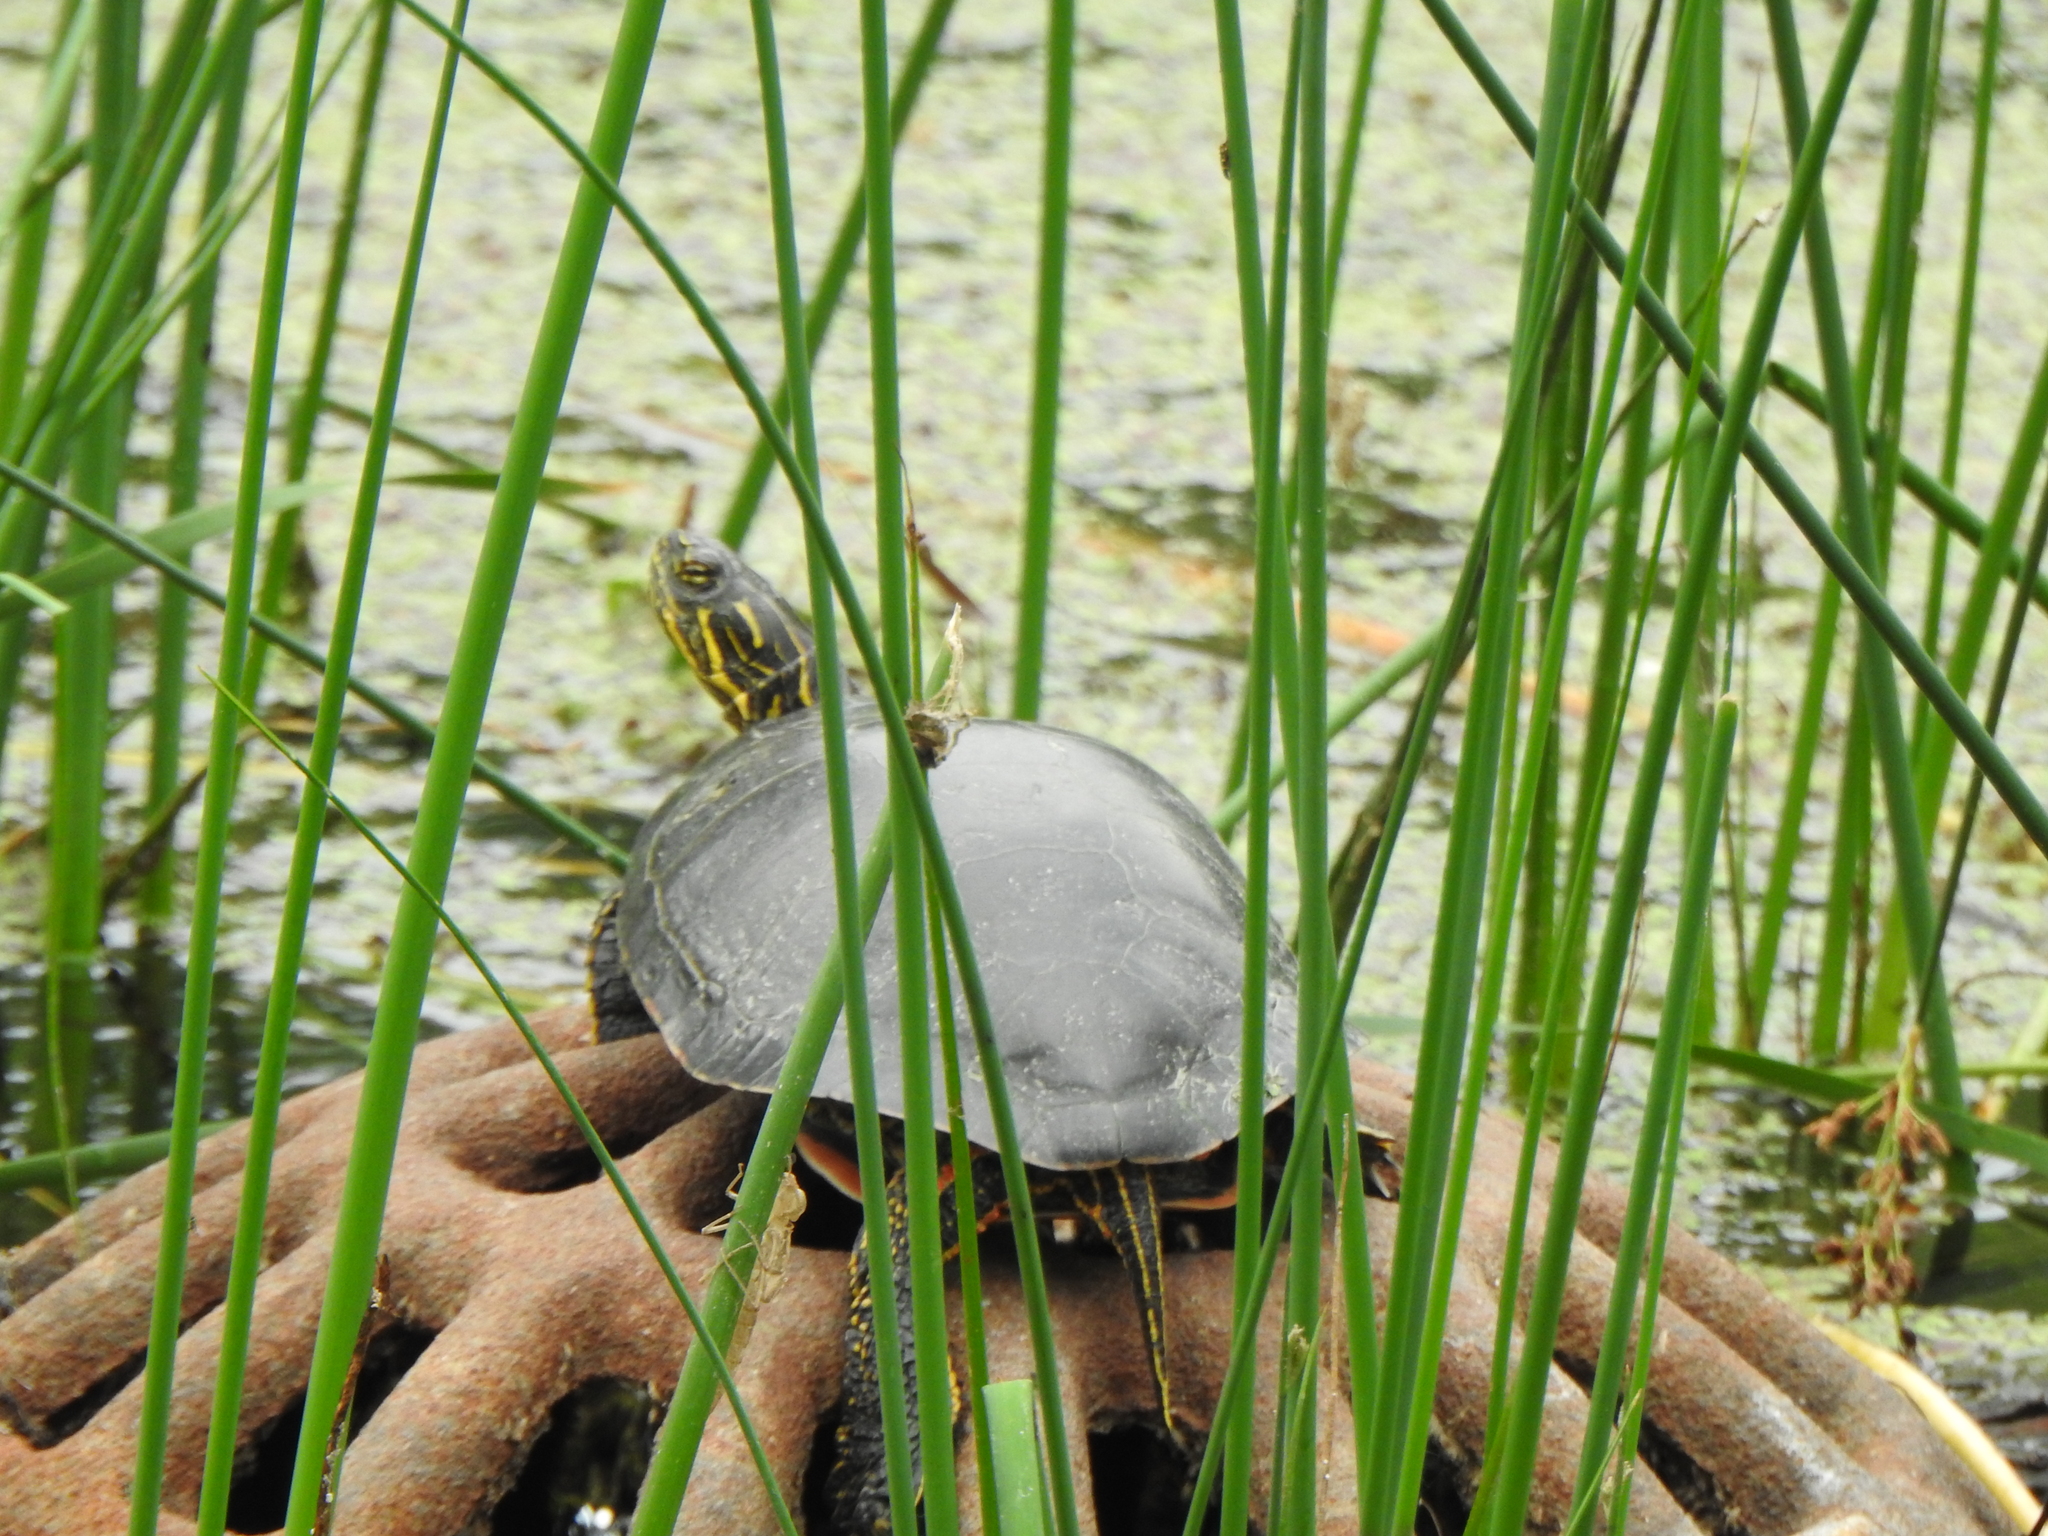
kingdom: Animalia
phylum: Chordata
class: Testudines
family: Emydidae
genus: Chrysemys
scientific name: Chrysemys picta
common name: Painted turtle
